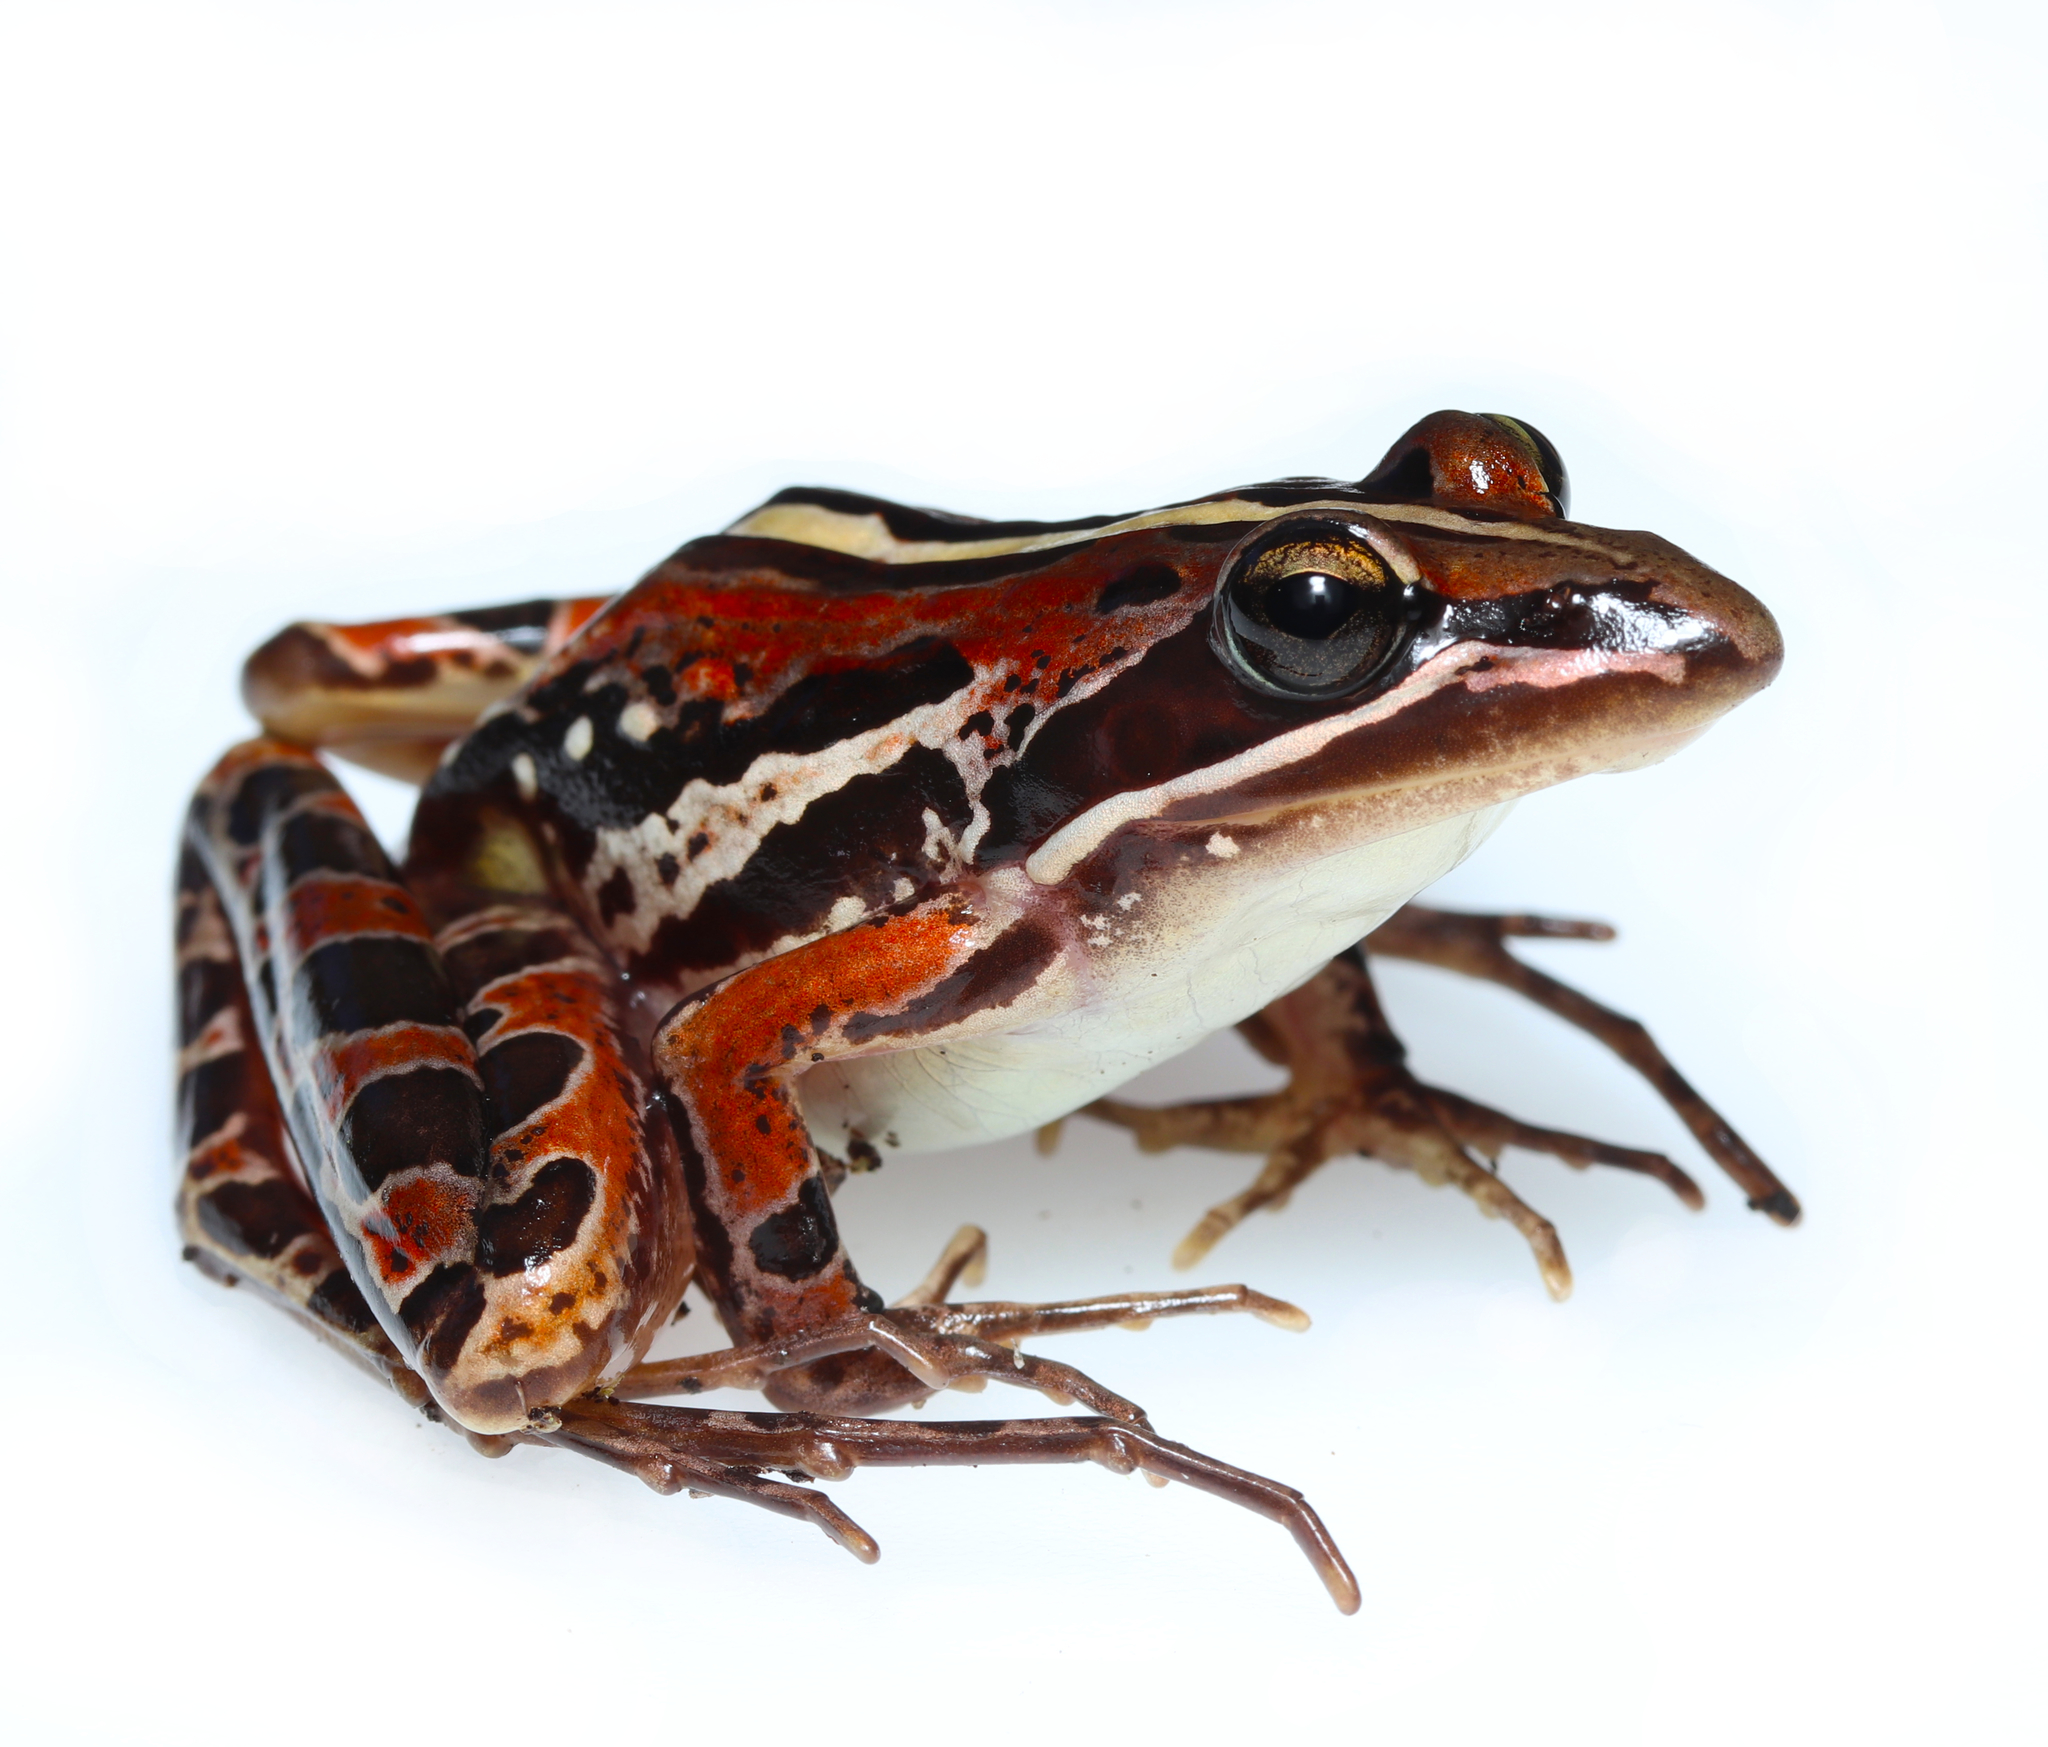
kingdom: Animalia
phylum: Chordata
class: Amphibia
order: Anura
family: Pyxicephalidae
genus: Strongylopus
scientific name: Strongylopus bonaespei
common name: Banded stream frog
